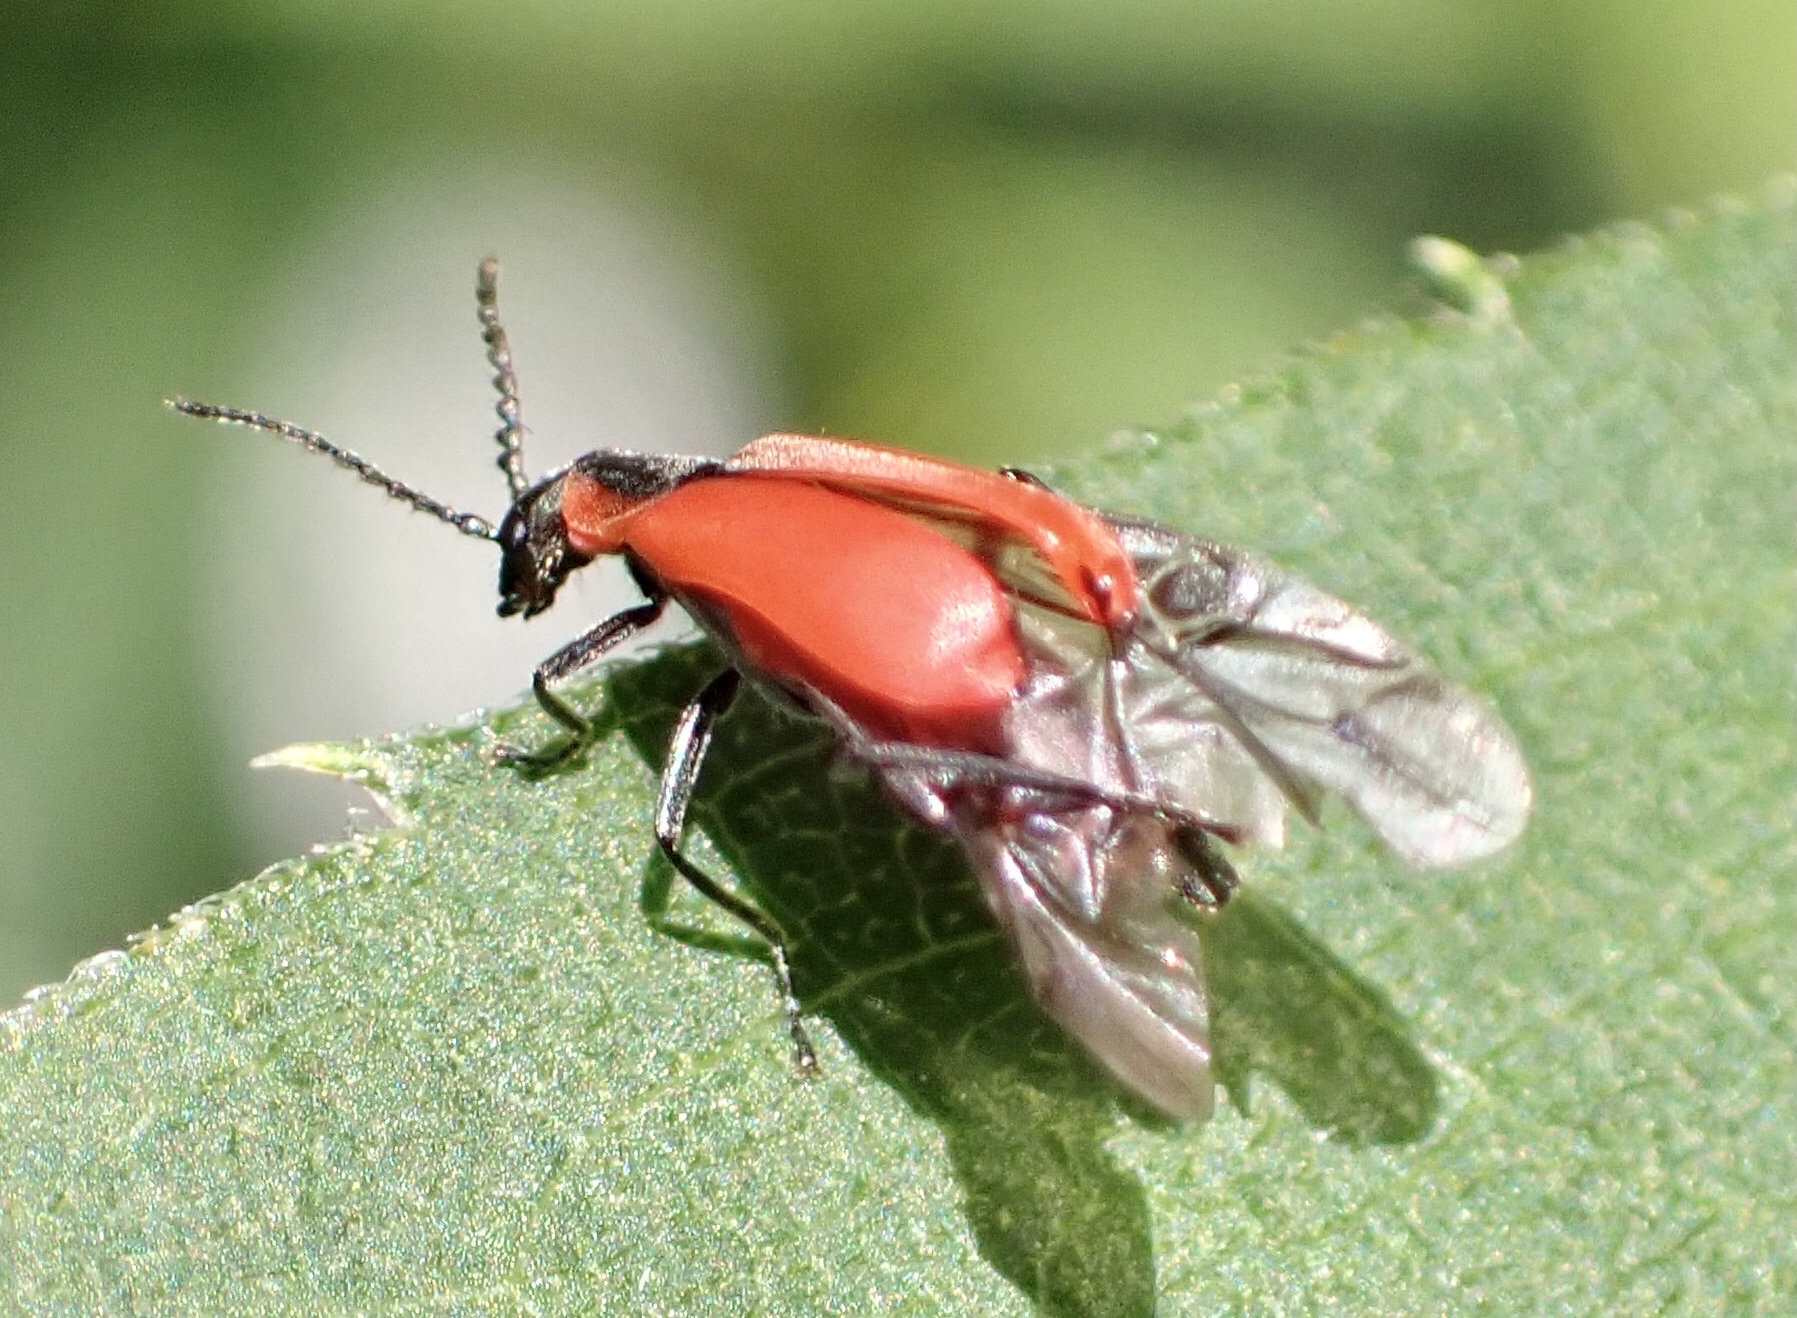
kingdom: Animalia
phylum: Arthropoda
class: Insecta
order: Coleoptera
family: Melyridae
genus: Anthocomus
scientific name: Anthocomus rufus
